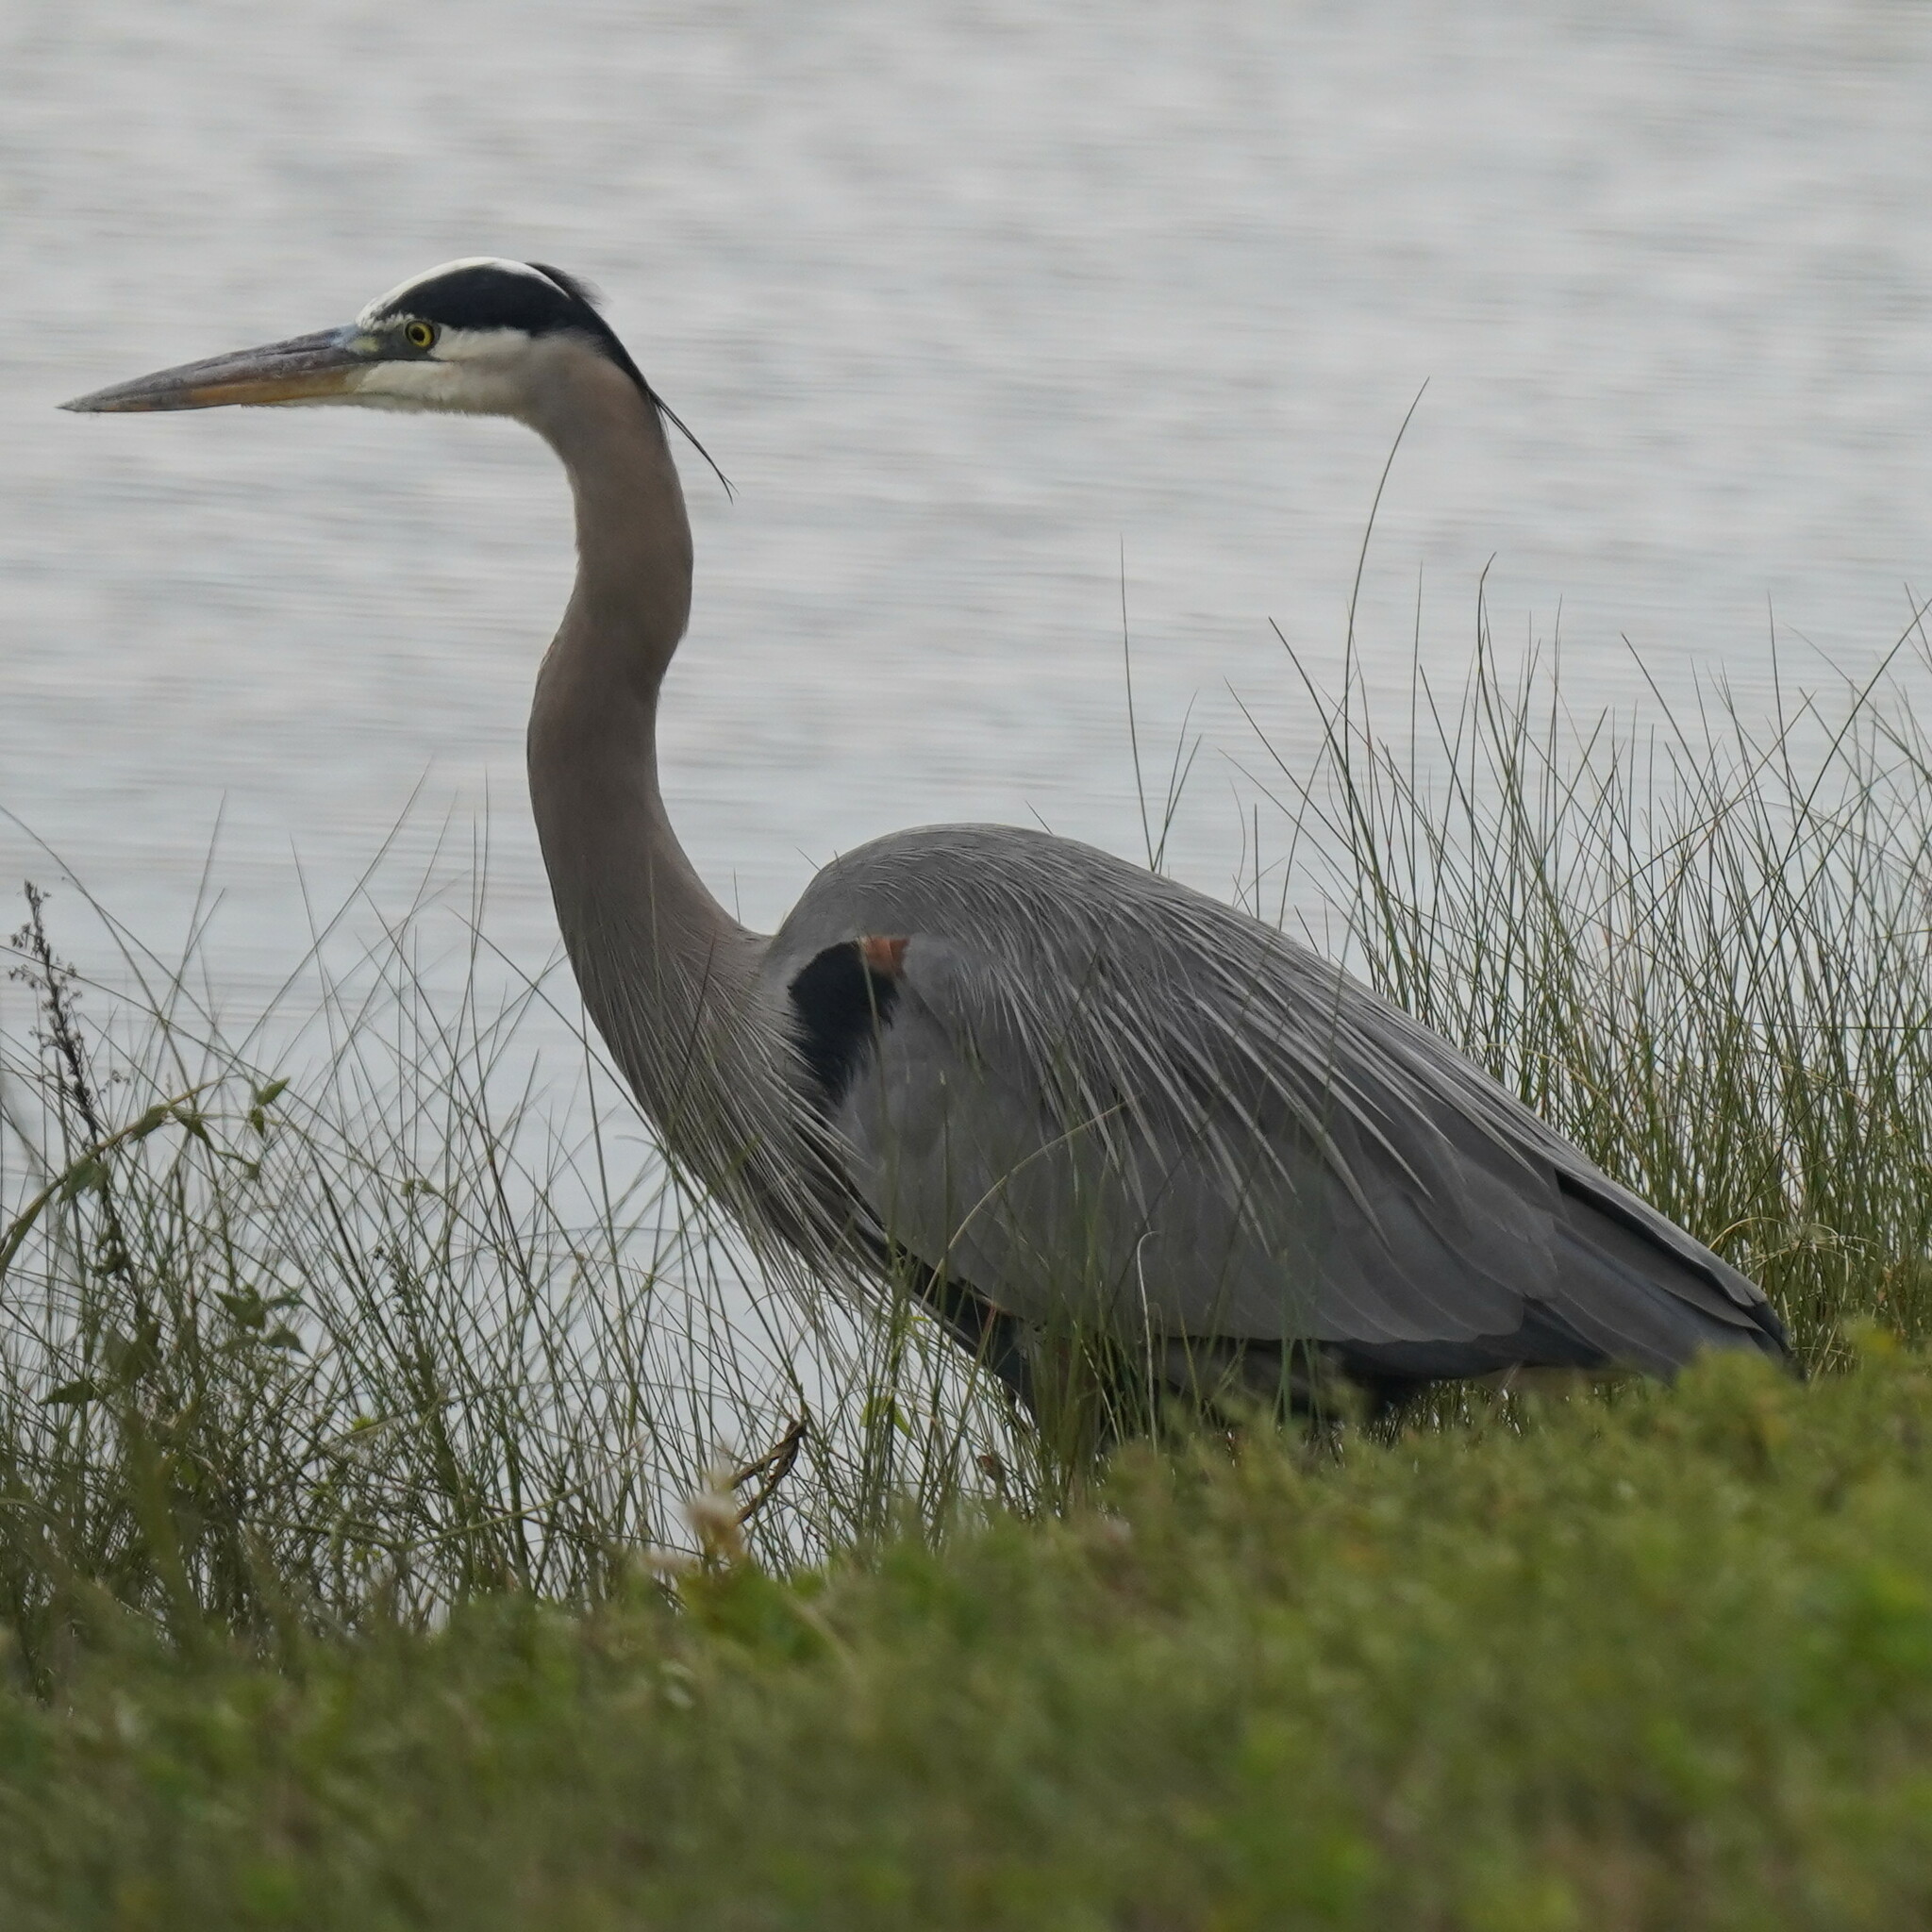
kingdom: Animalia
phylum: Chordata
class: Aves
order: Pelecaniformes
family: Ardeidae
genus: Ardea
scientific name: Ardea herodias
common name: Great blue heron
